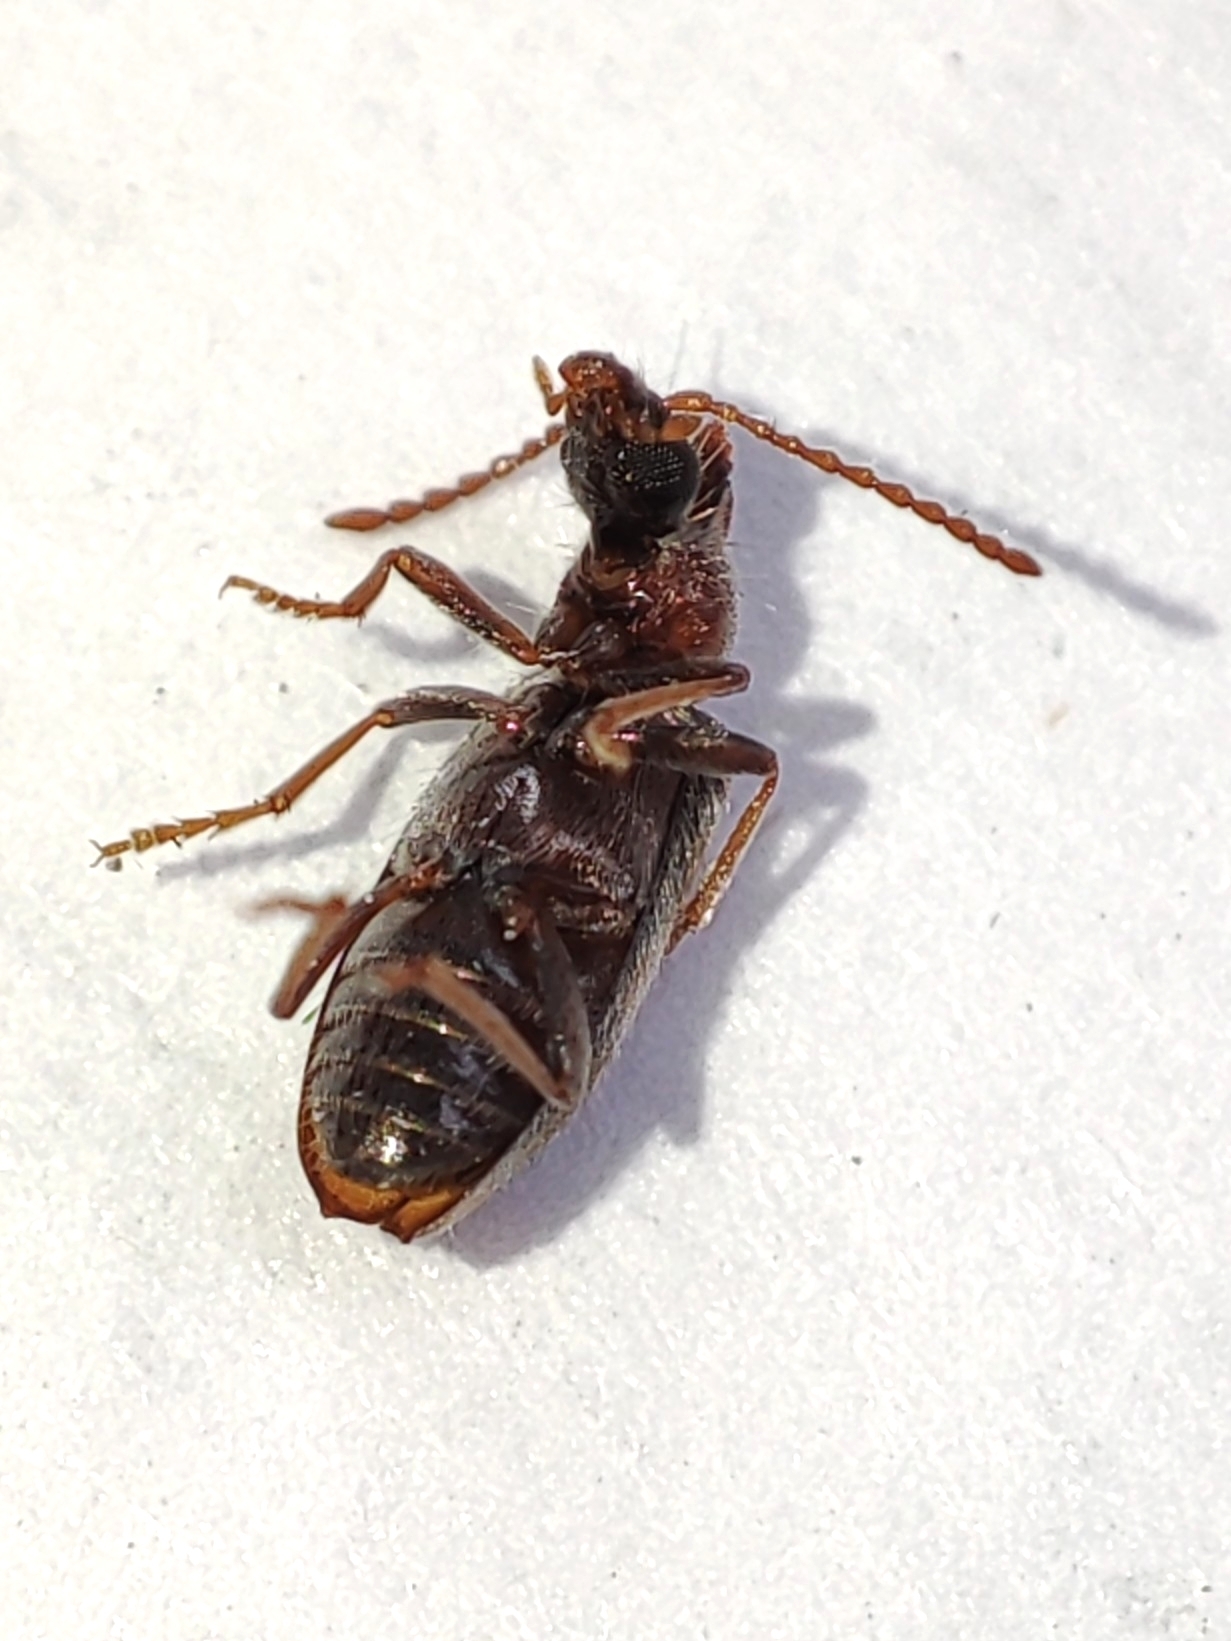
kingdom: Animalia
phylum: Arthropoda
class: Insecta
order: Coleoptera
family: Anthicidae
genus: Notoxus
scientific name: Notoxus monoceros
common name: Monoceros beetle
